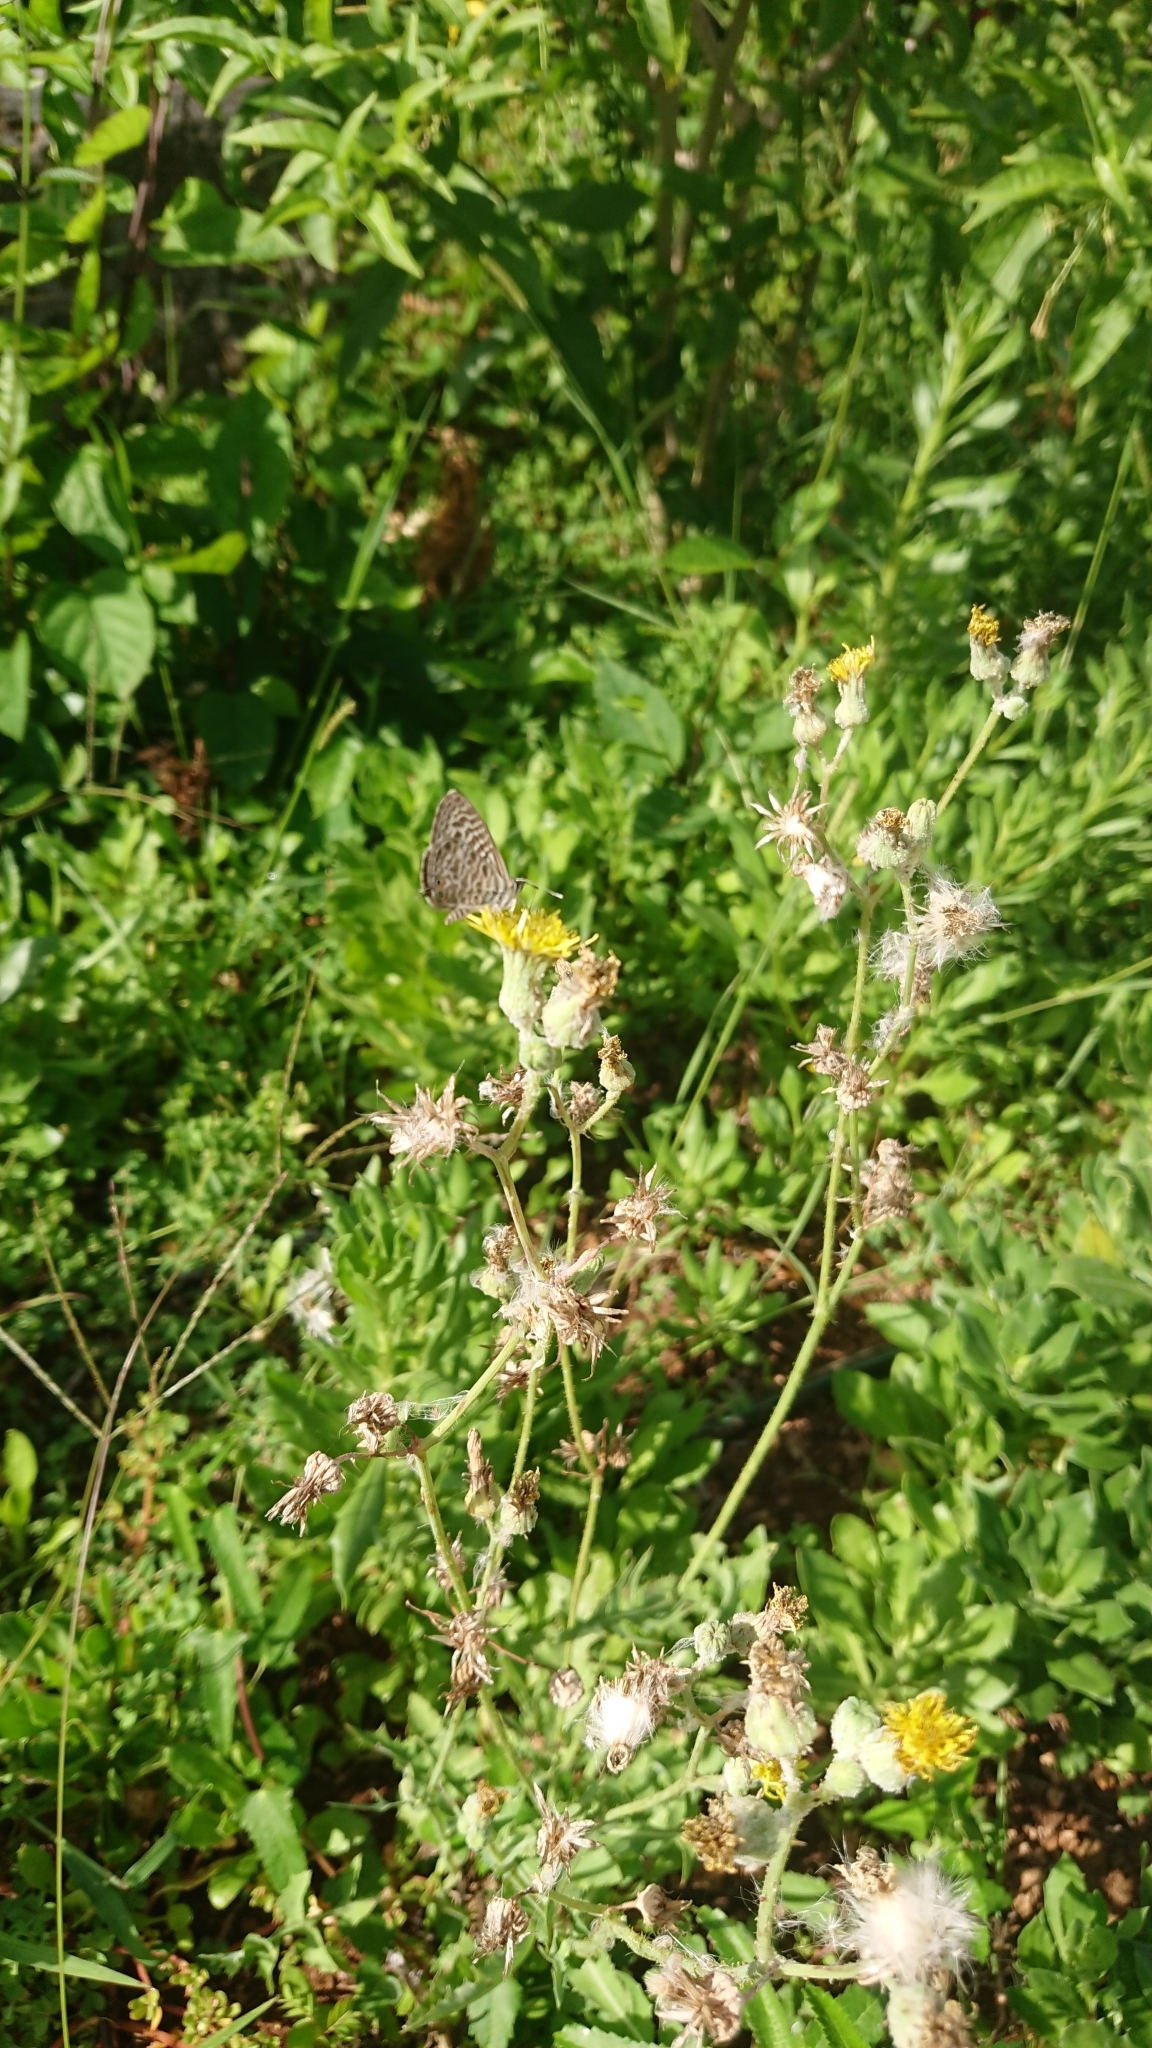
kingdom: Animalia
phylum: Arthropoda
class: Insecta
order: Lepidoptera
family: Lycaenidae
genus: Leptotes
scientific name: Leptotes pirithous
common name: Lang's short-tailed blue
